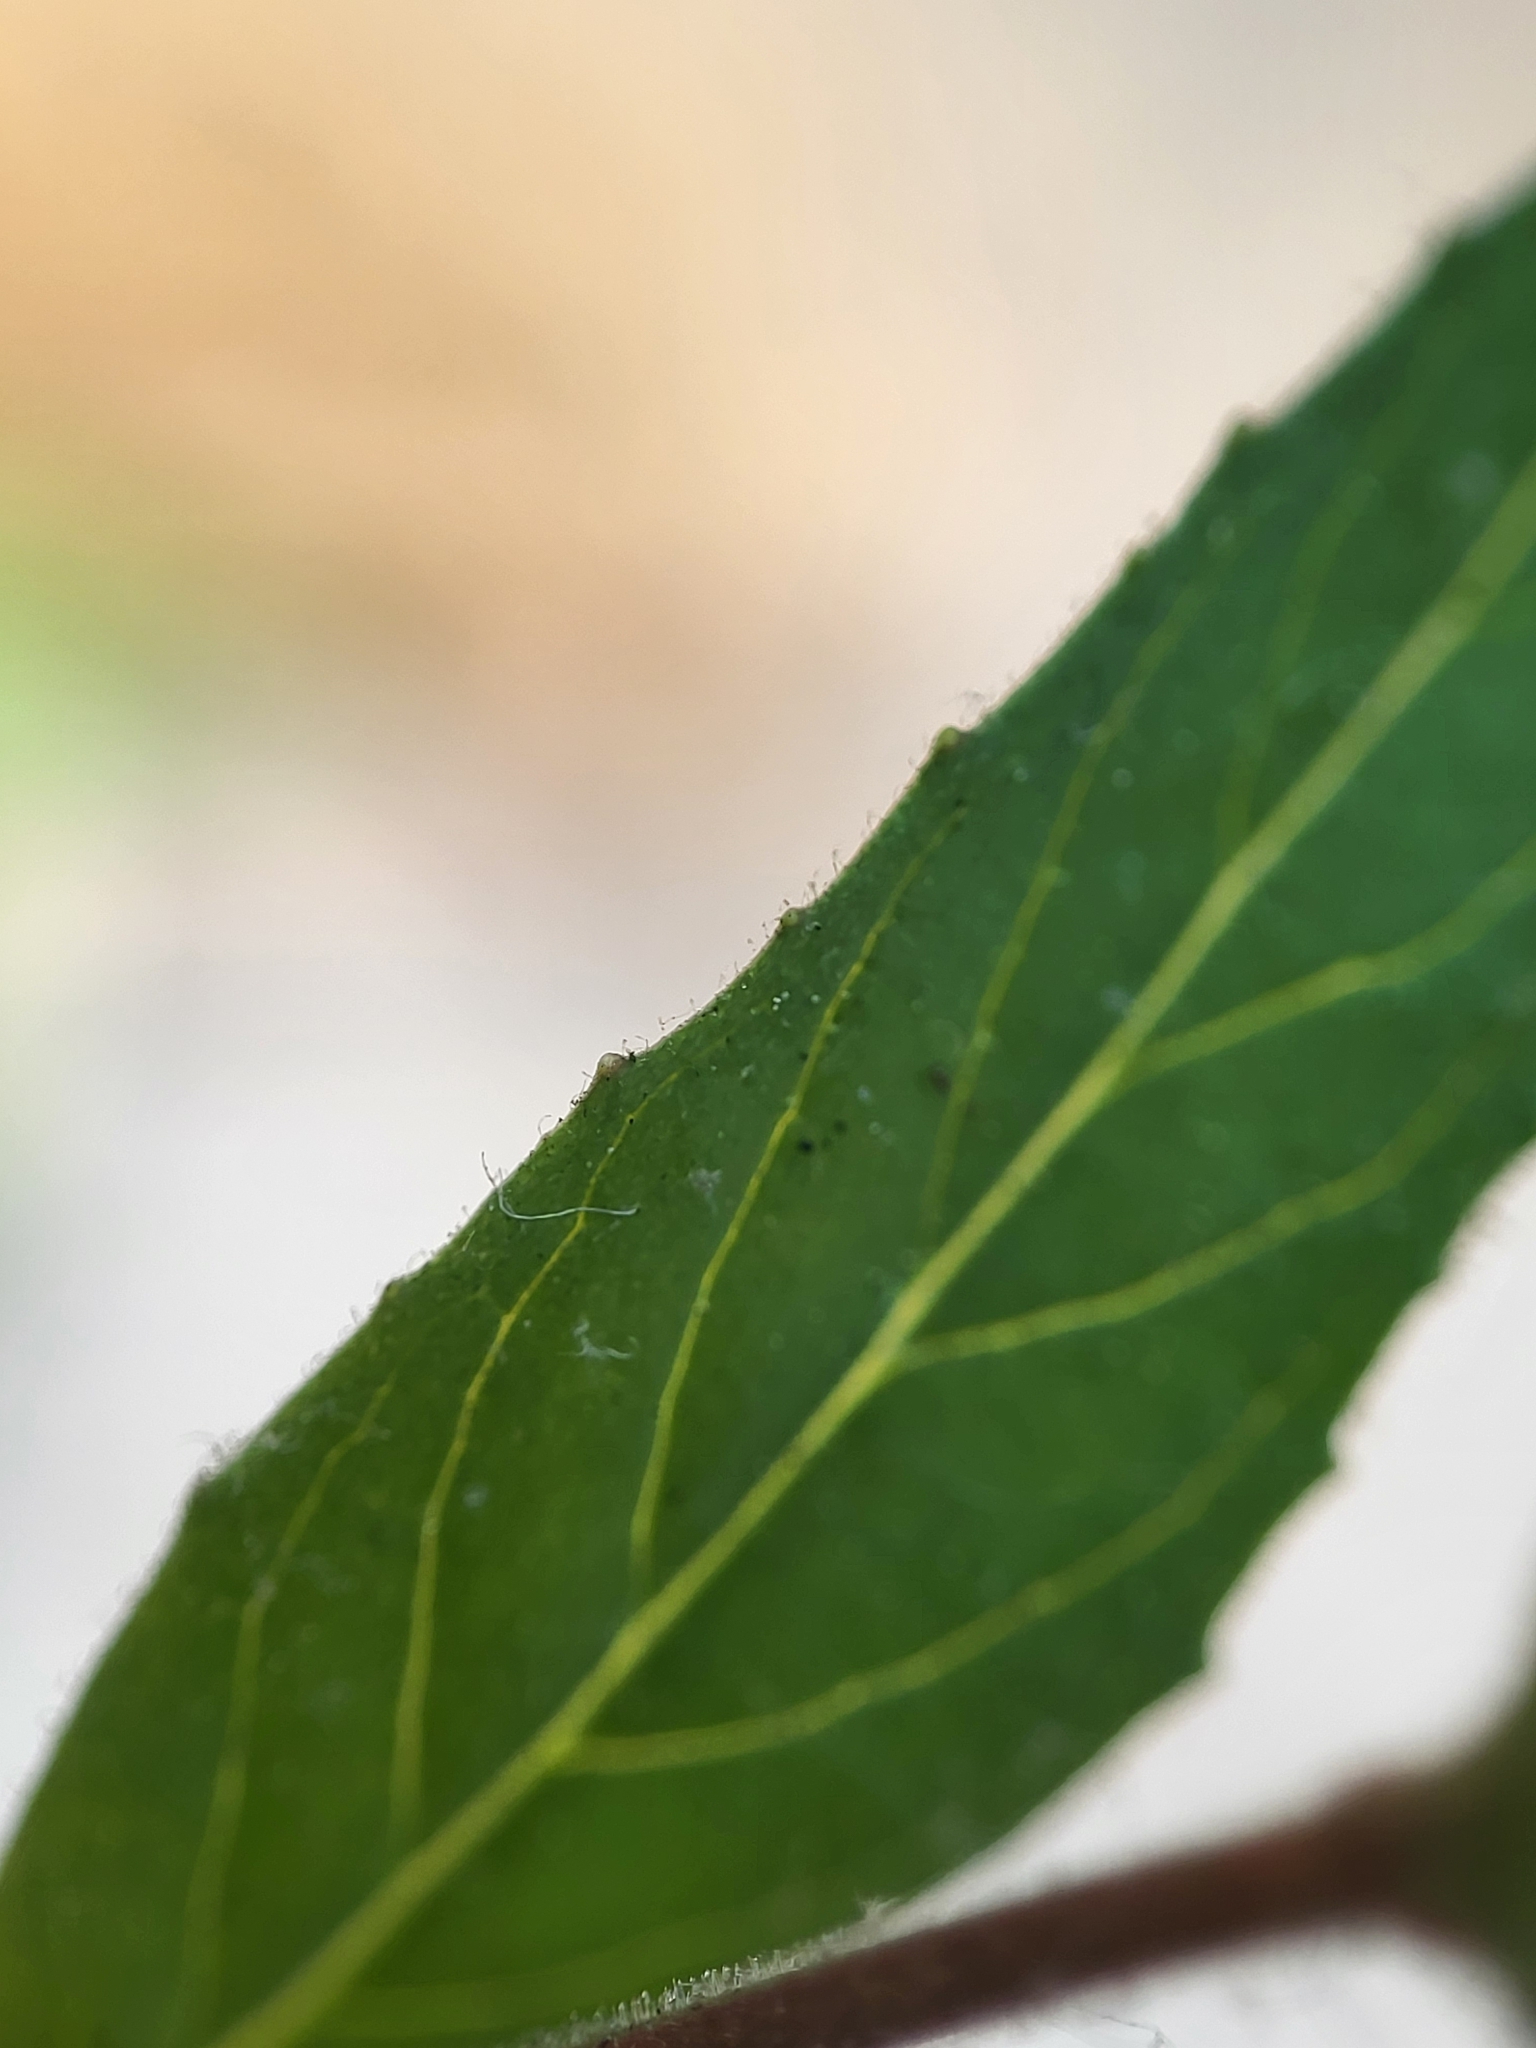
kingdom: Plantae
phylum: Tracheophyta
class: Magnoliopsida
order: Myrtales
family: Onagraceae
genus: Epilobium
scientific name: Epilobium ciliatum
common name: American willowherb
